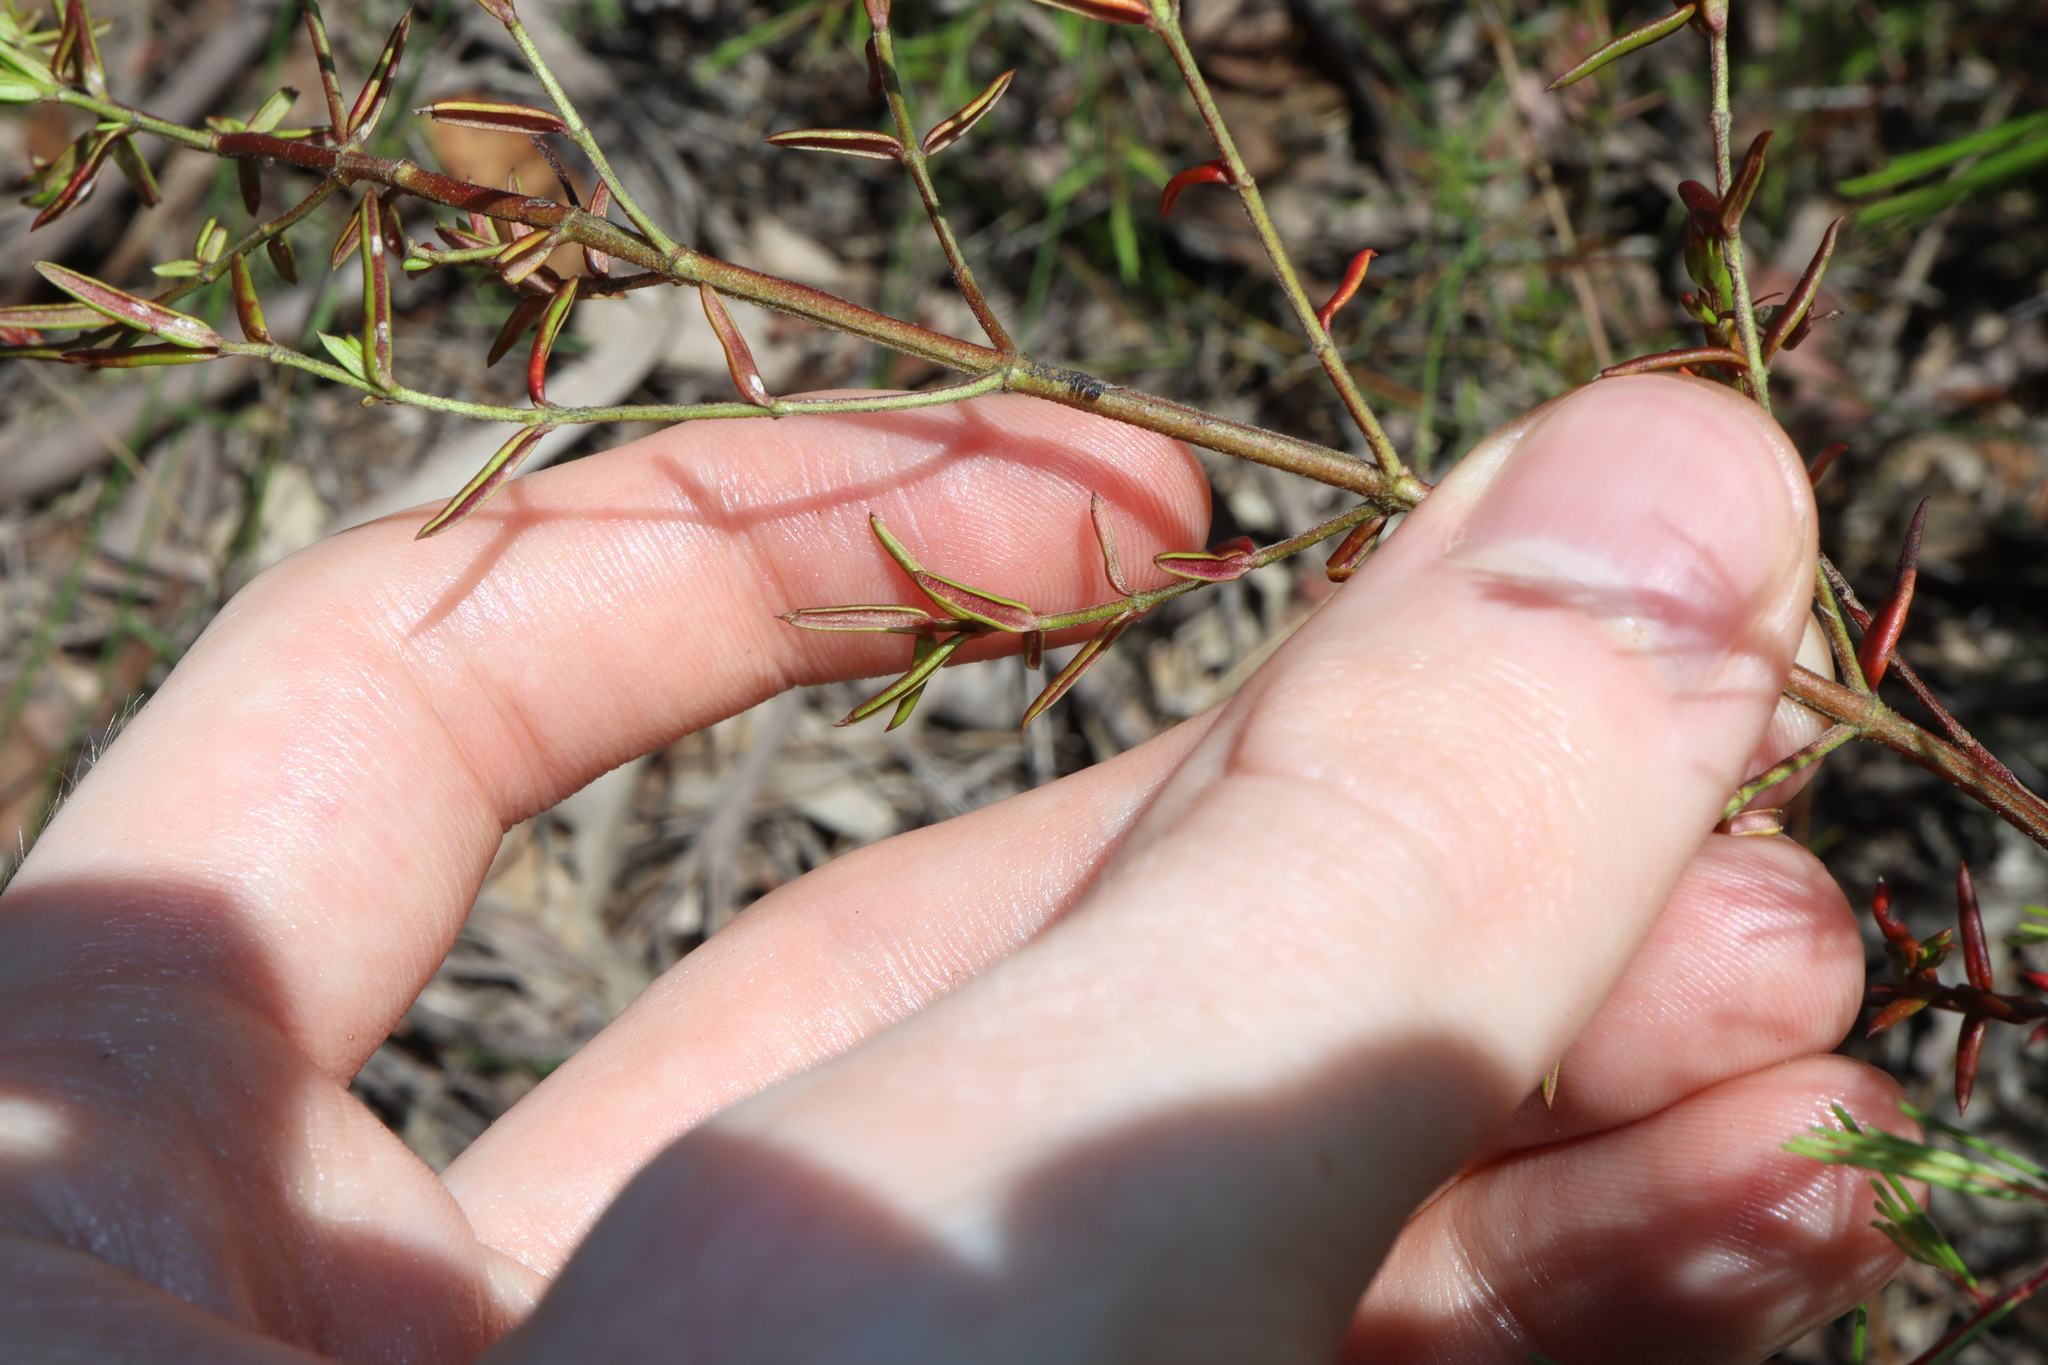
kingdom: Plantae
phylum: Tracheophyta
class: Magnoliopsida
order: Lamiales
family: Lamiaceae
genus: Prostanthera
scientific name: Prostanthera scutellarioides
